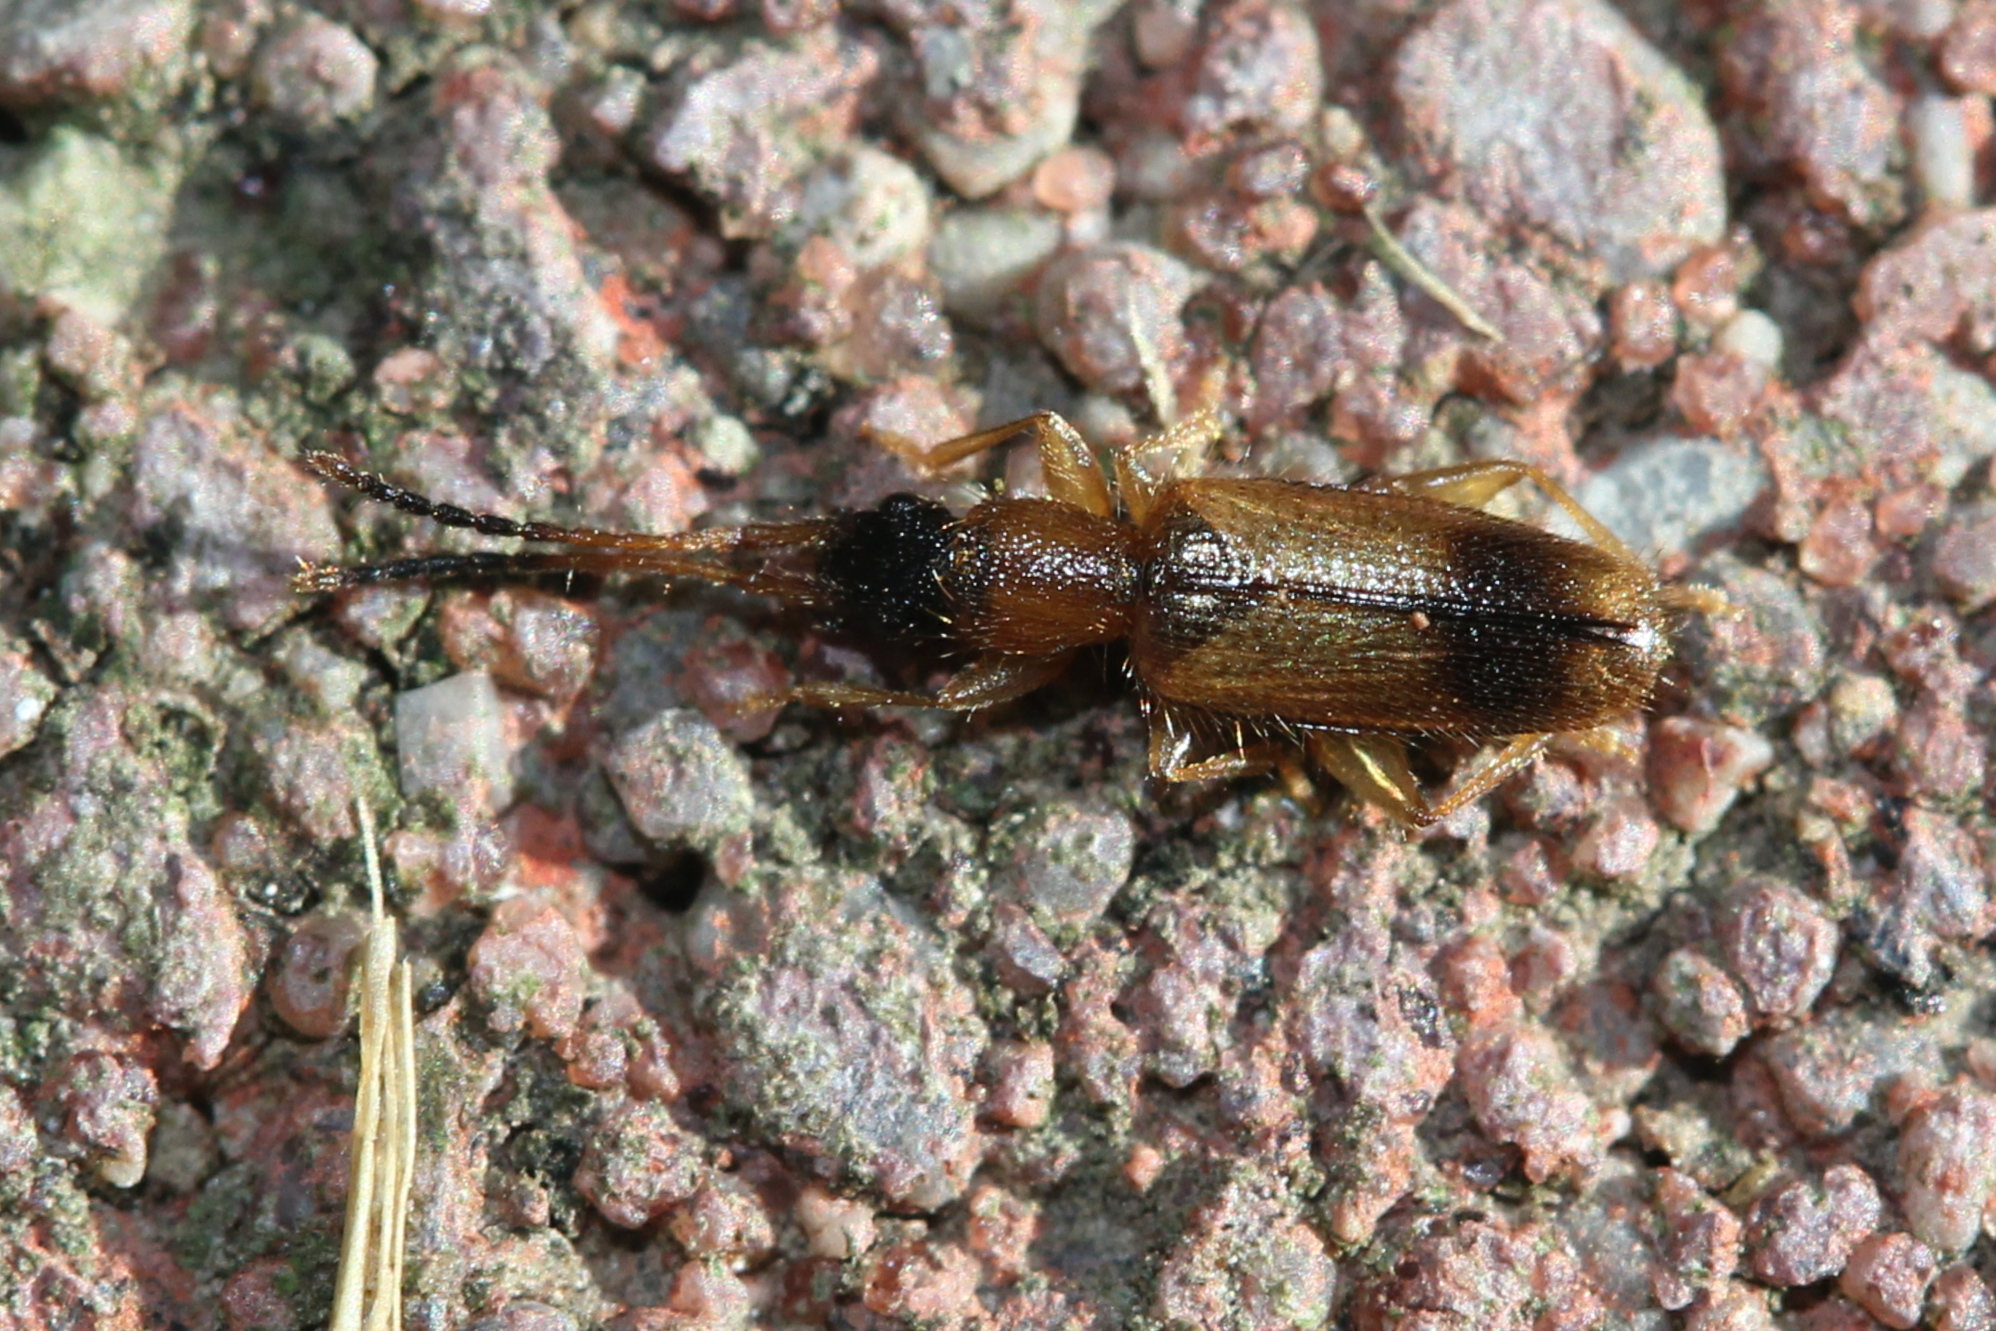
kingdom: Animalia
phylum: Arthropoda
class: Insecta
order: Coleoptera
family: Silvanidae
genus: Telephanus
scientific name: Telephanus velox
